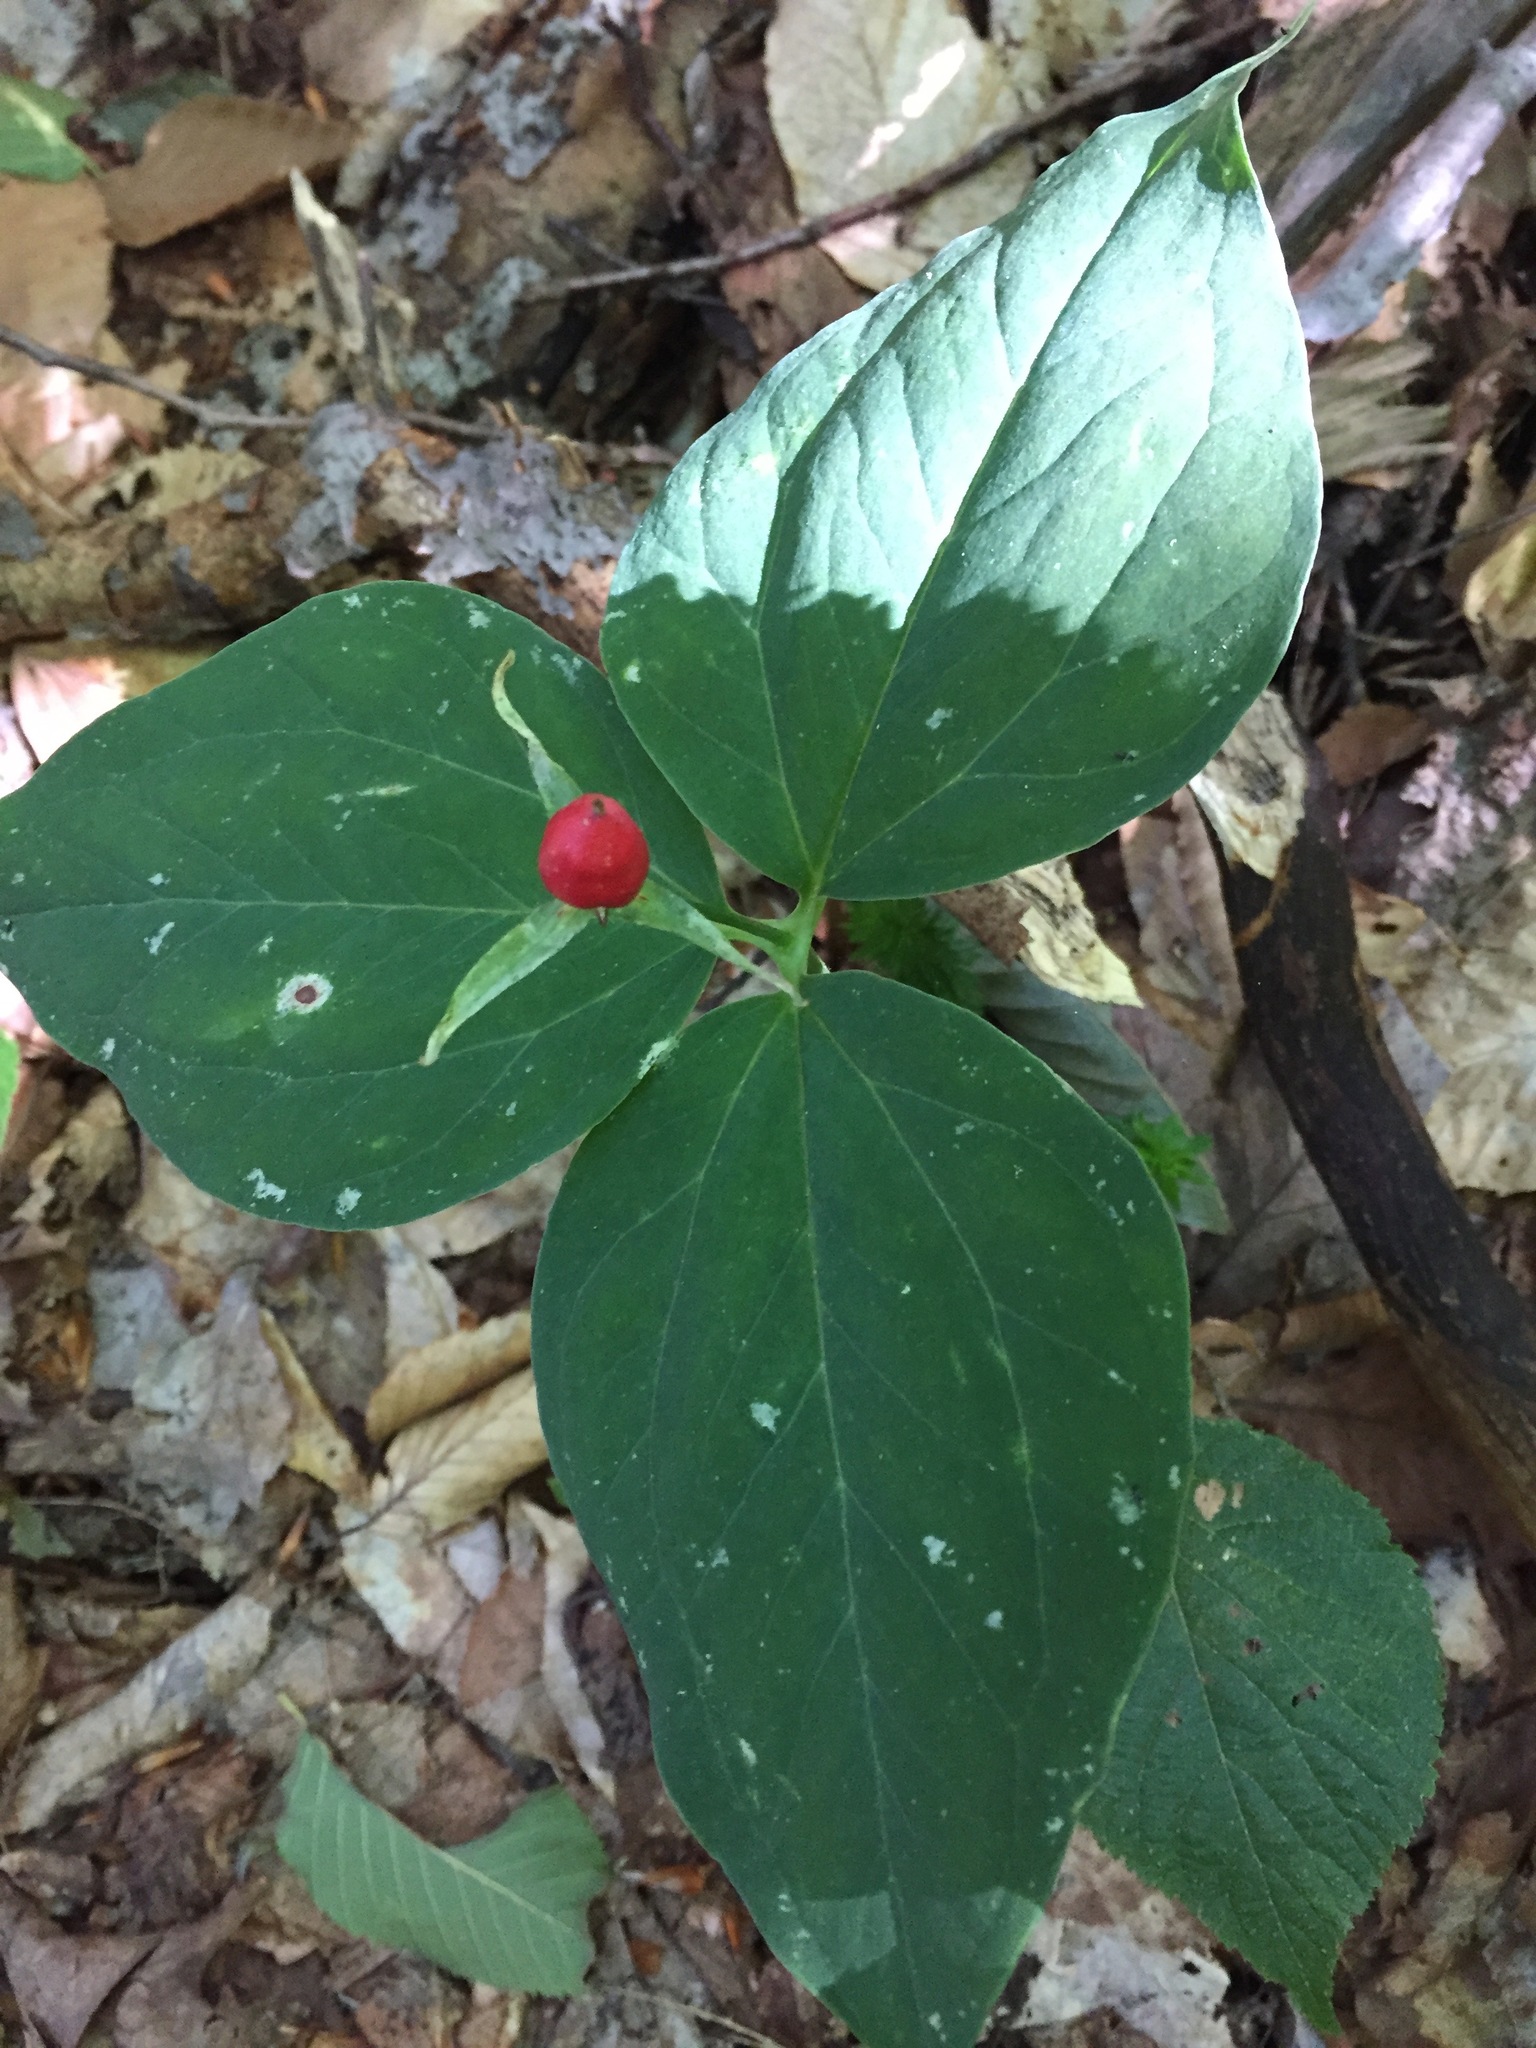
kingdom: Plantae
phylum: Tracheophyta
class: Liliopsida
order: Liliales
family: Melanthiaceae
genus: Trillium
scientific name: Trillium undulatum
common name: Paint trillium
